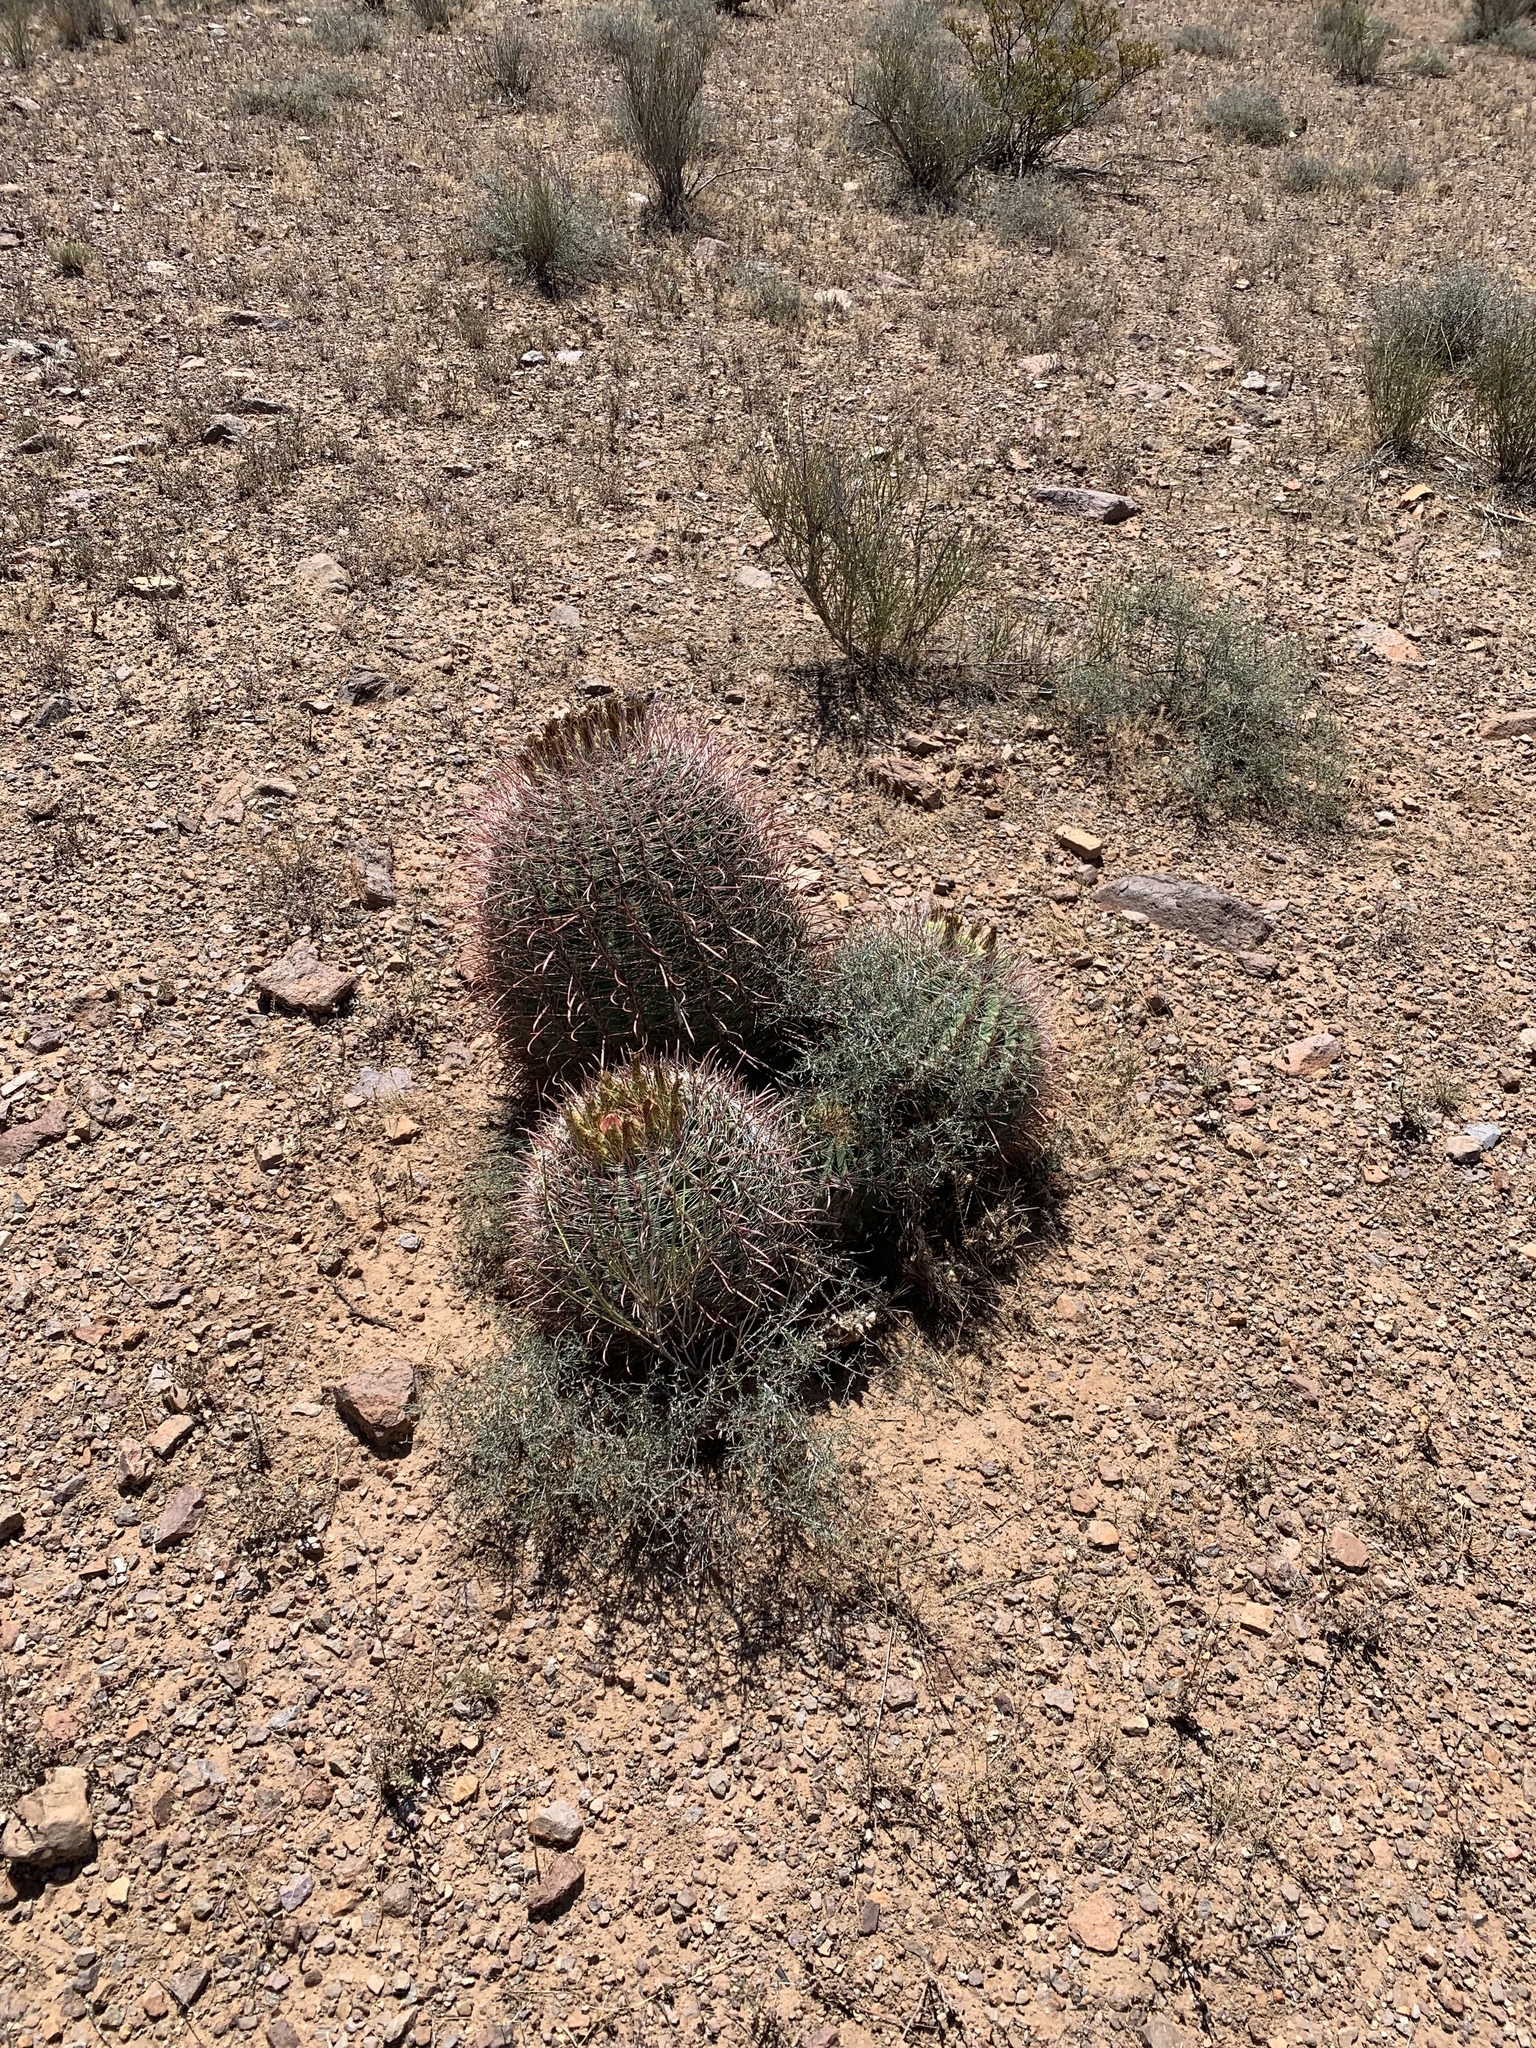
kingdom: Plantae
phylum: Tracheophyta
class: Magnoliopsida
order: Caryophyllales
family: Cactaceae
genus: Ferocactus
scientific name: Ferocactus wislizeni
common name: Candy barrel cactus
